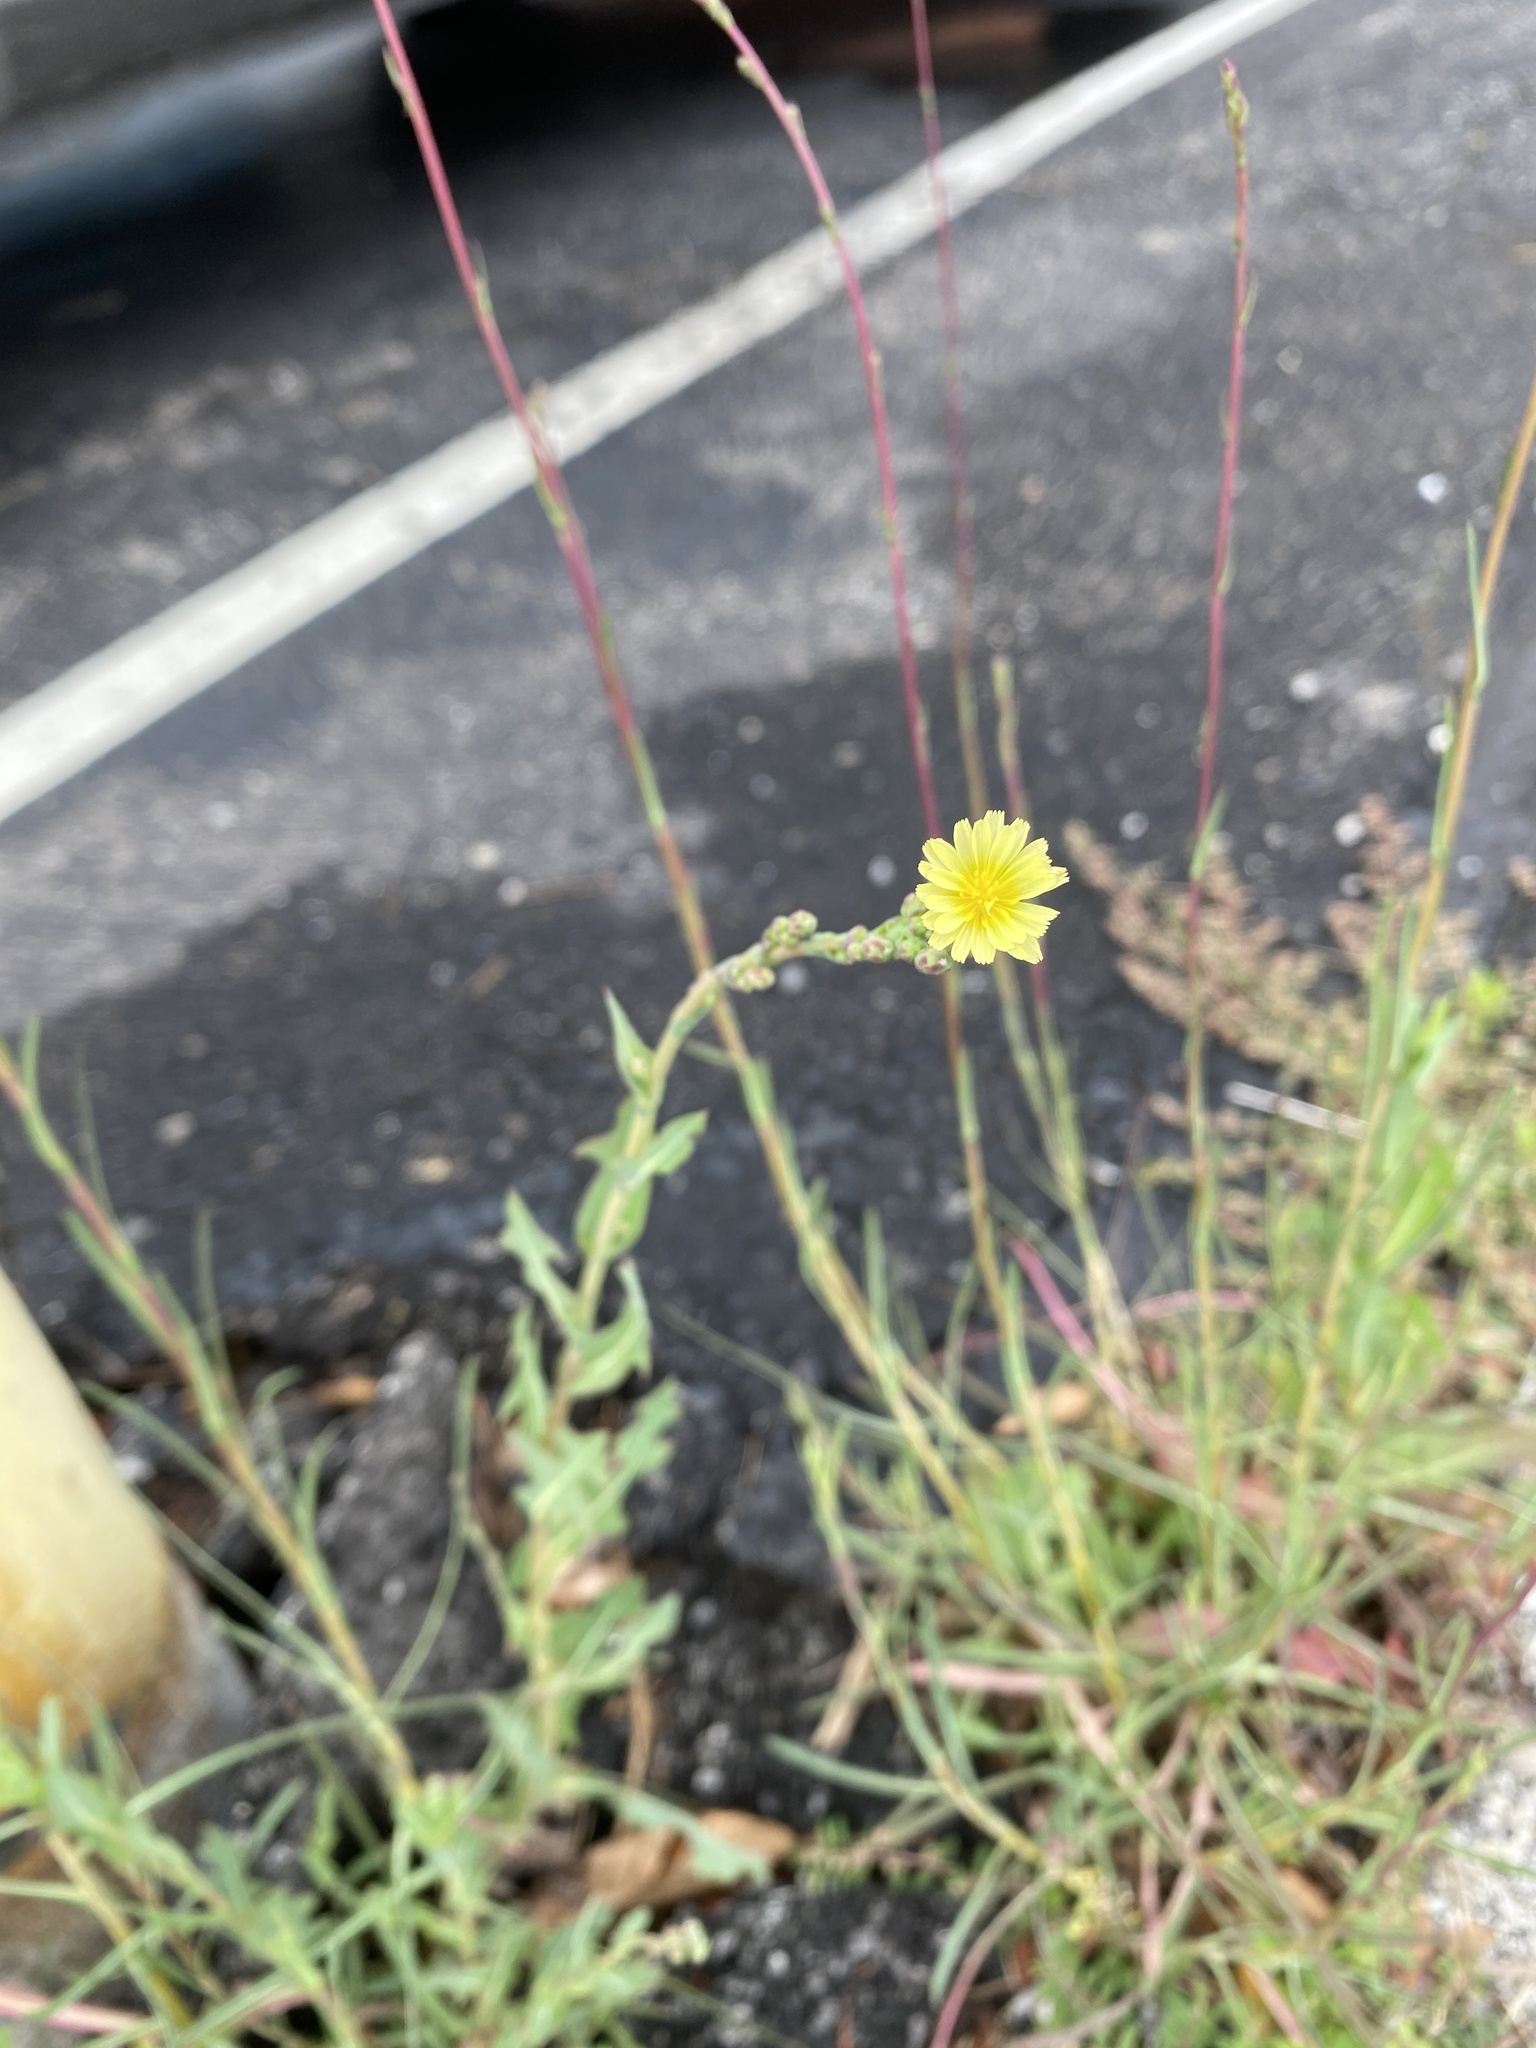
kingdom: Plantae
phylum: Tracheophyta
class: Magnoliopsida
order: Asterales
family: Asteraceae
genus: Lactuca
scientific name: Lactuca serriola
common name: Prickly lettuce
